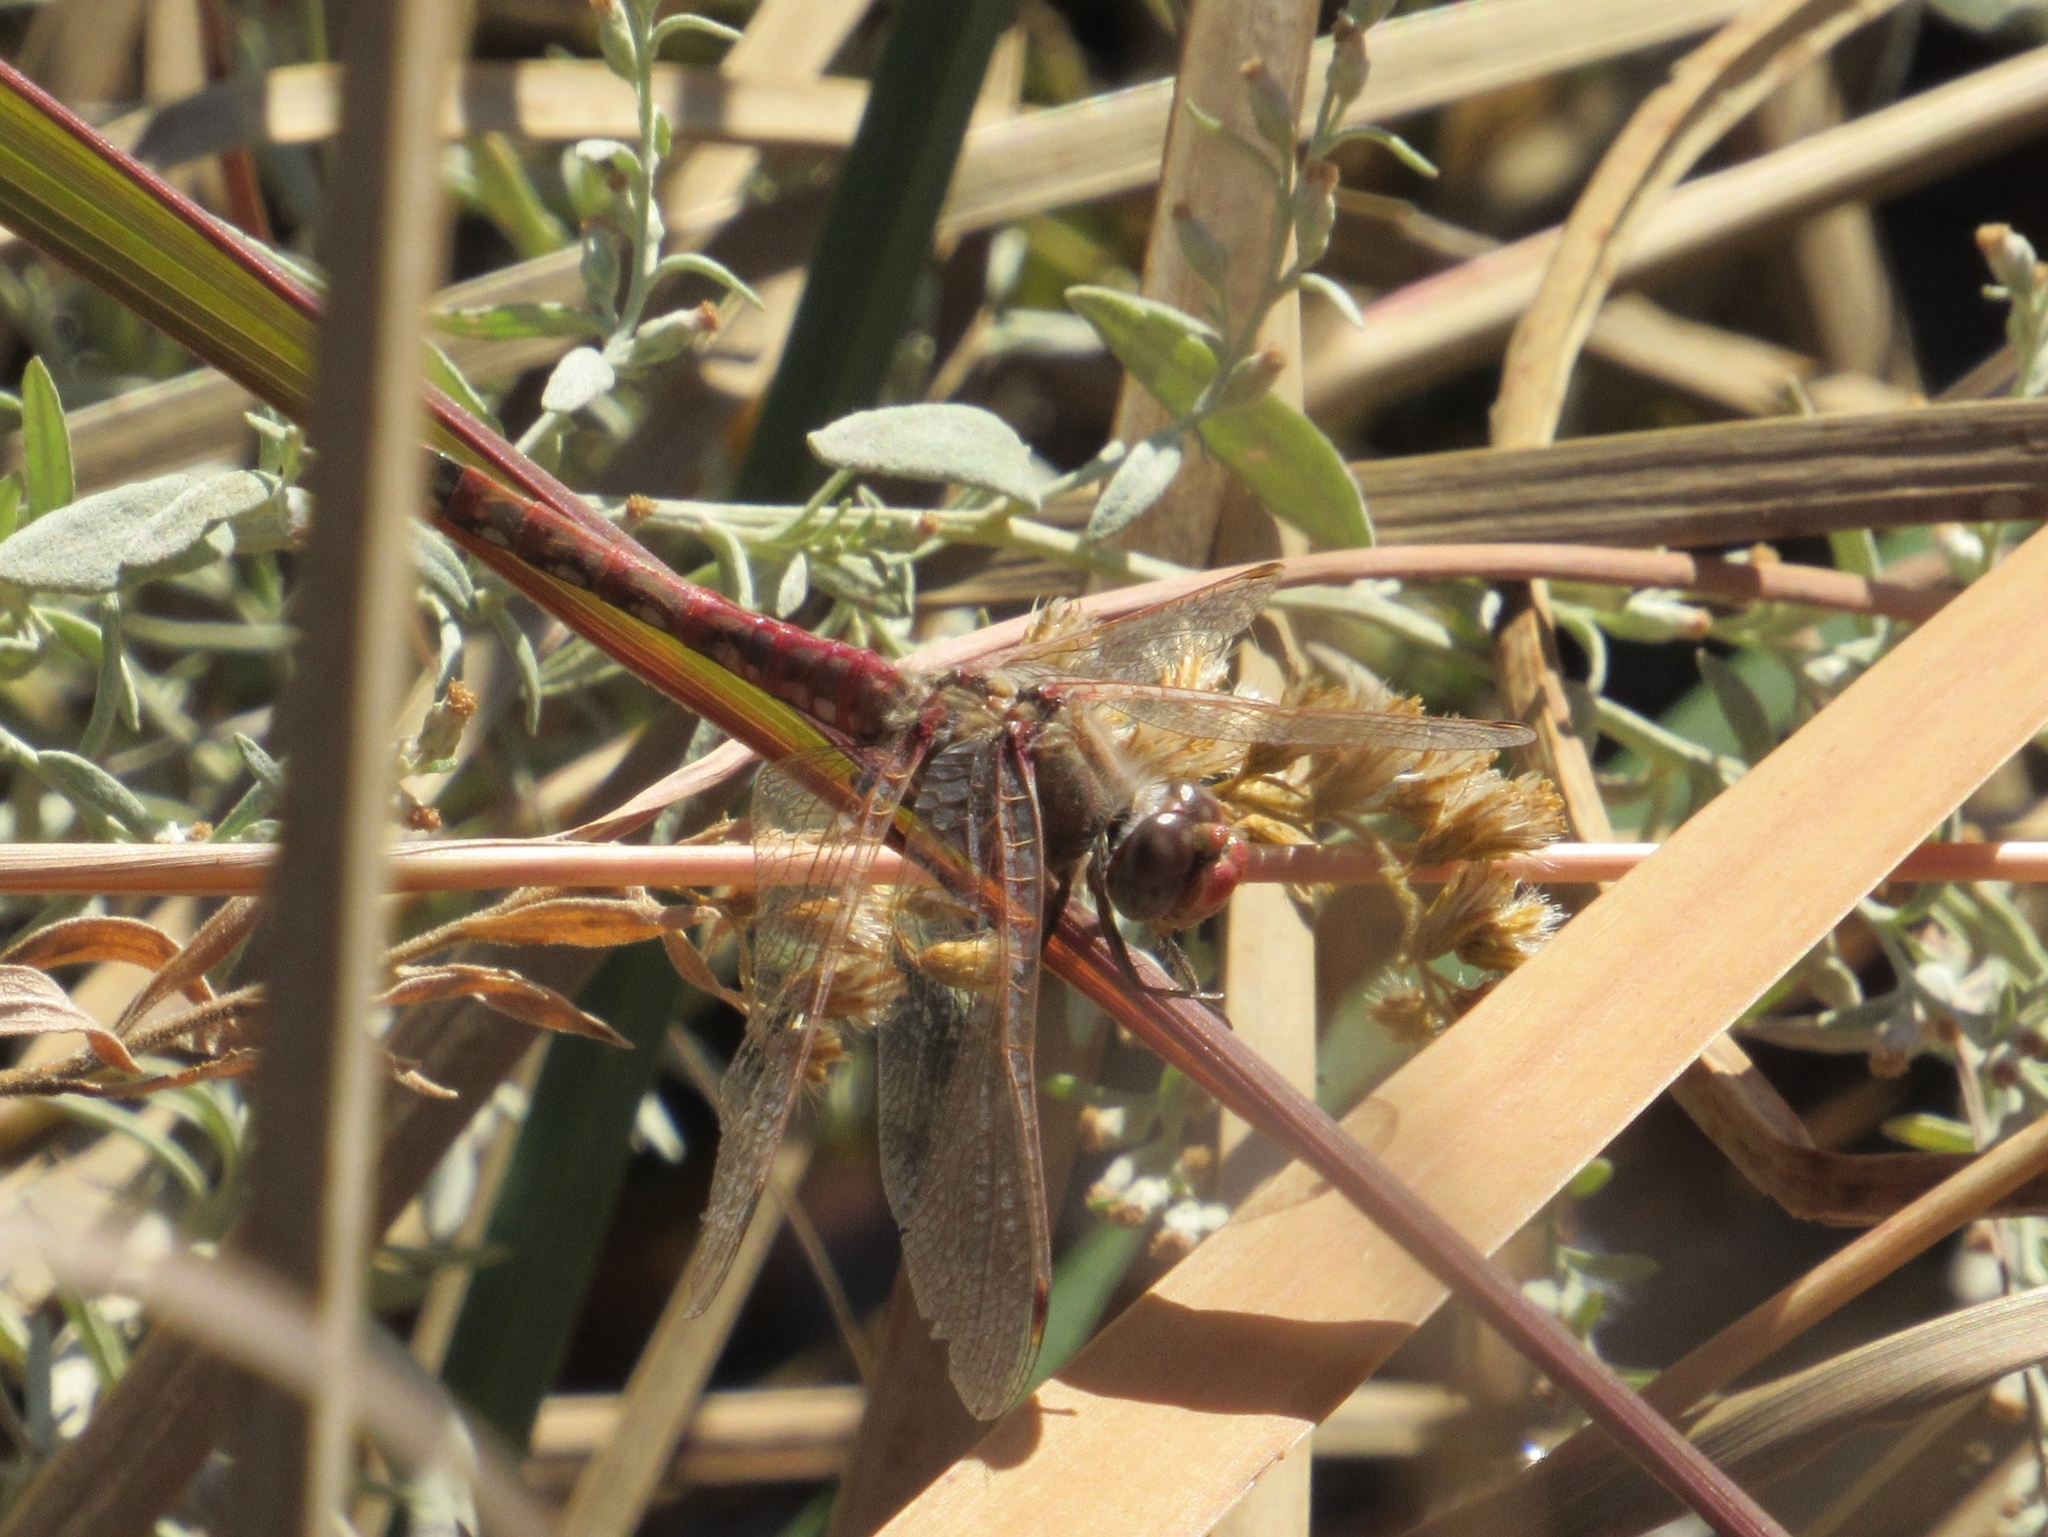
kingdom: Animalia
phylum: Arthropoda
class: Insecta
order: Odonata
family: Libellulidae
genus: Sympetrum
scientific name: Sympetrum corruptum
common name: Variegated meadowhawk
